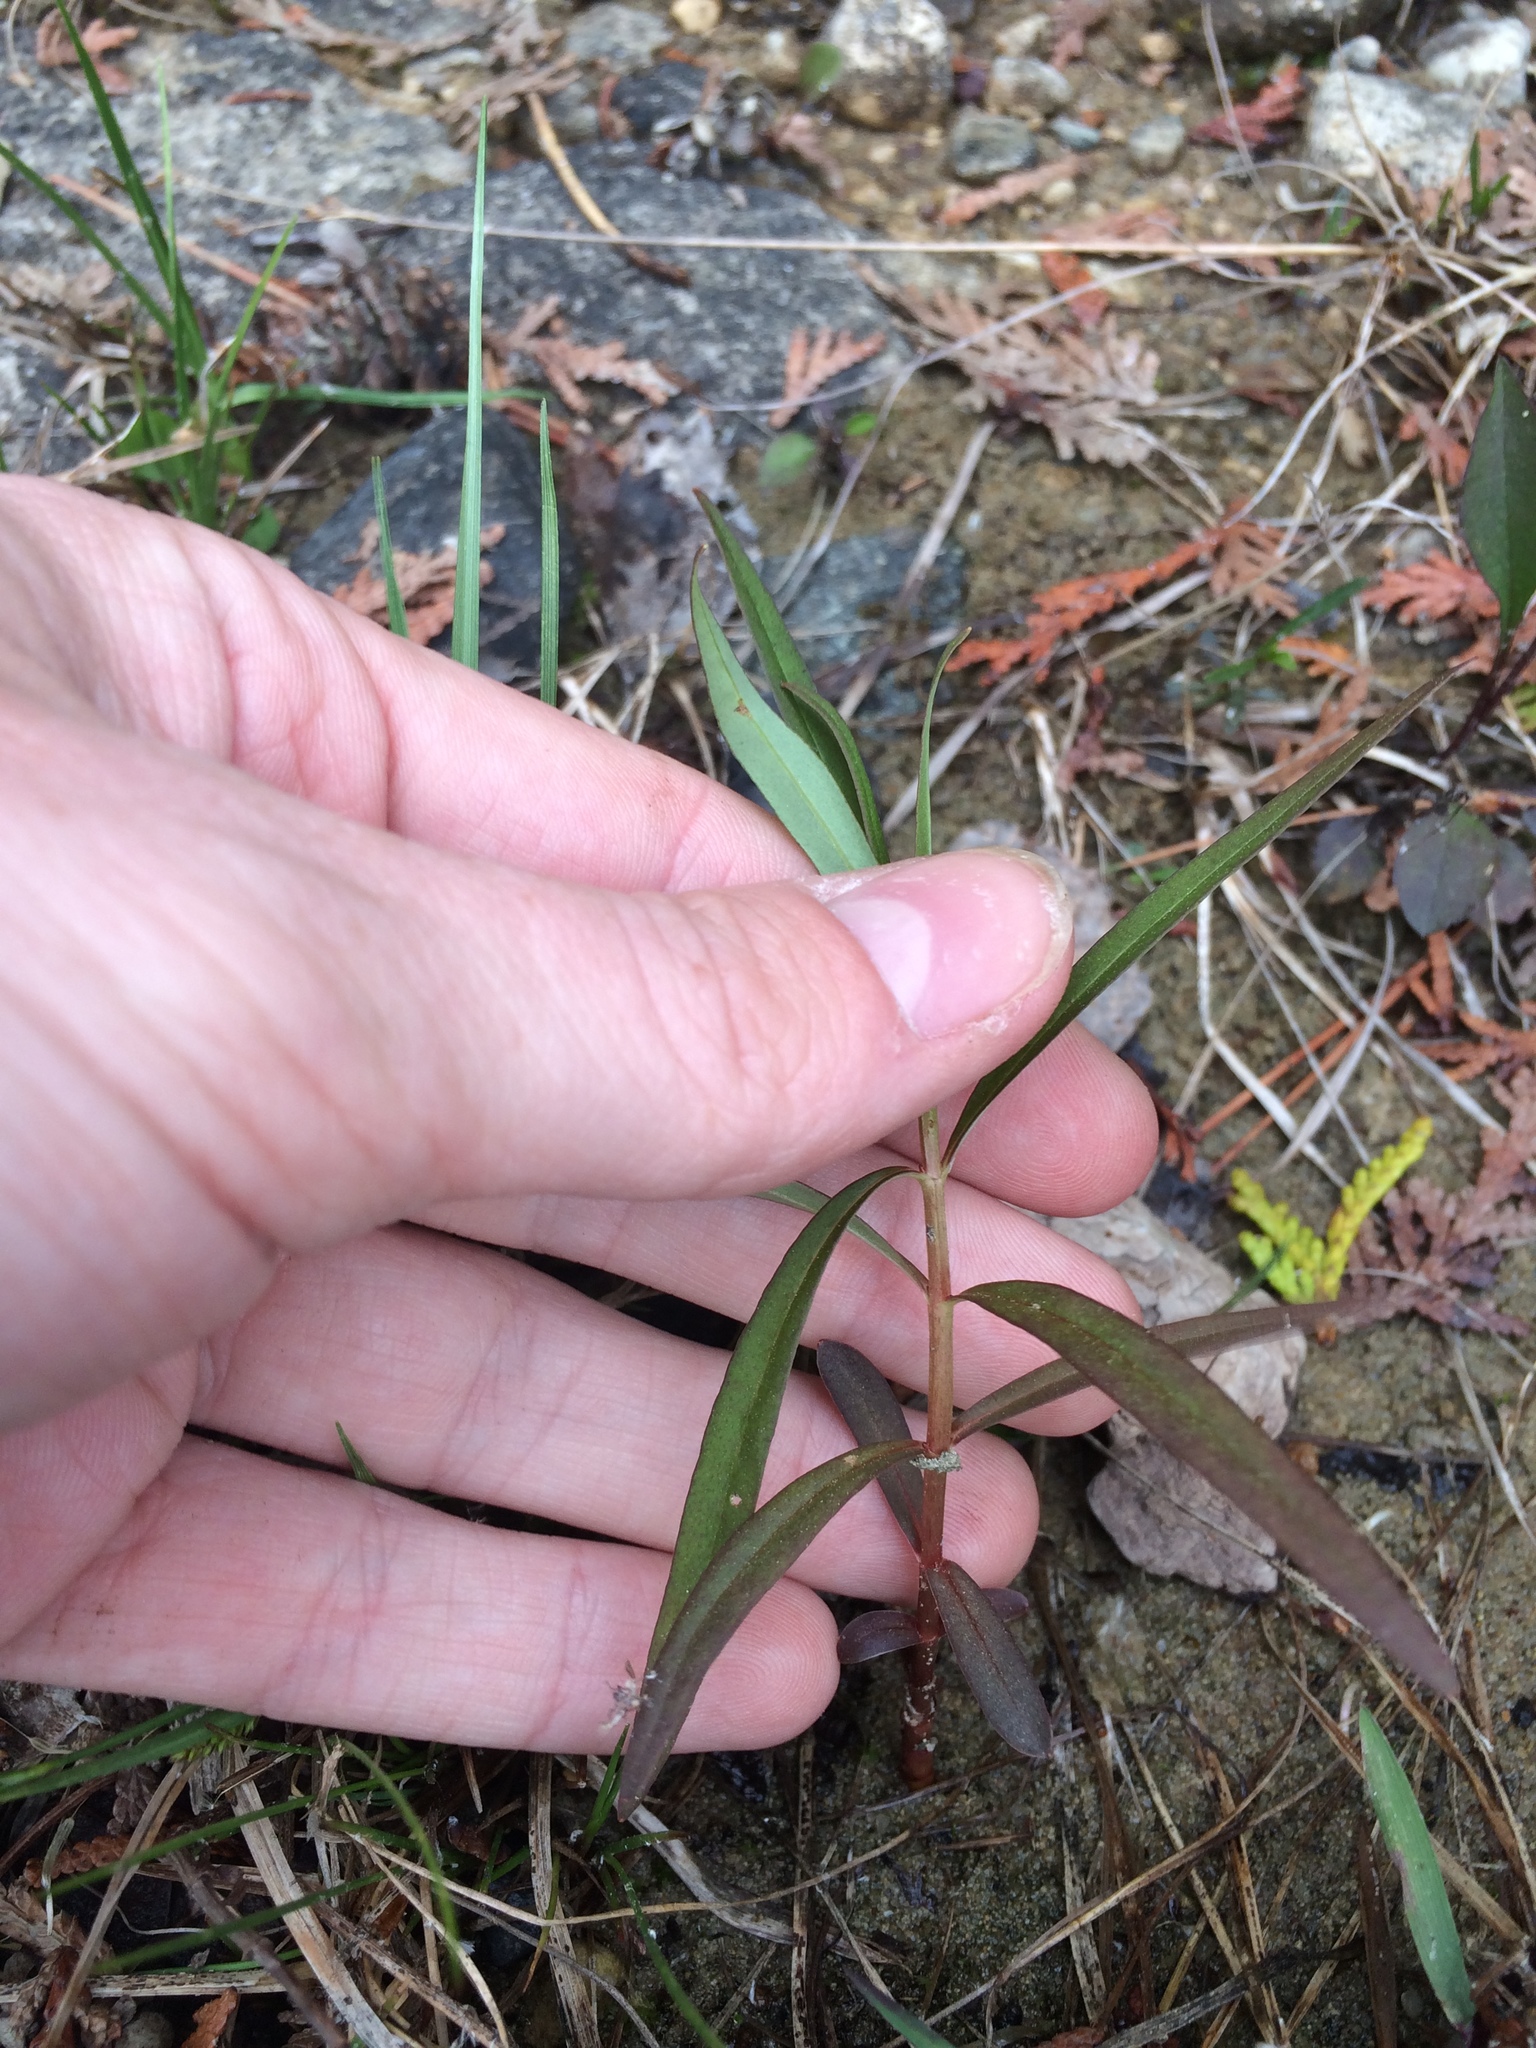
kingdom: Plantae
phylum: Tracheophyta
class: Magnoliopsida
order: Ericales
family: Primulaceae
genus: Lysimachia
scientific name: Lysimachia terrestris
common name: Lake loosestrife
